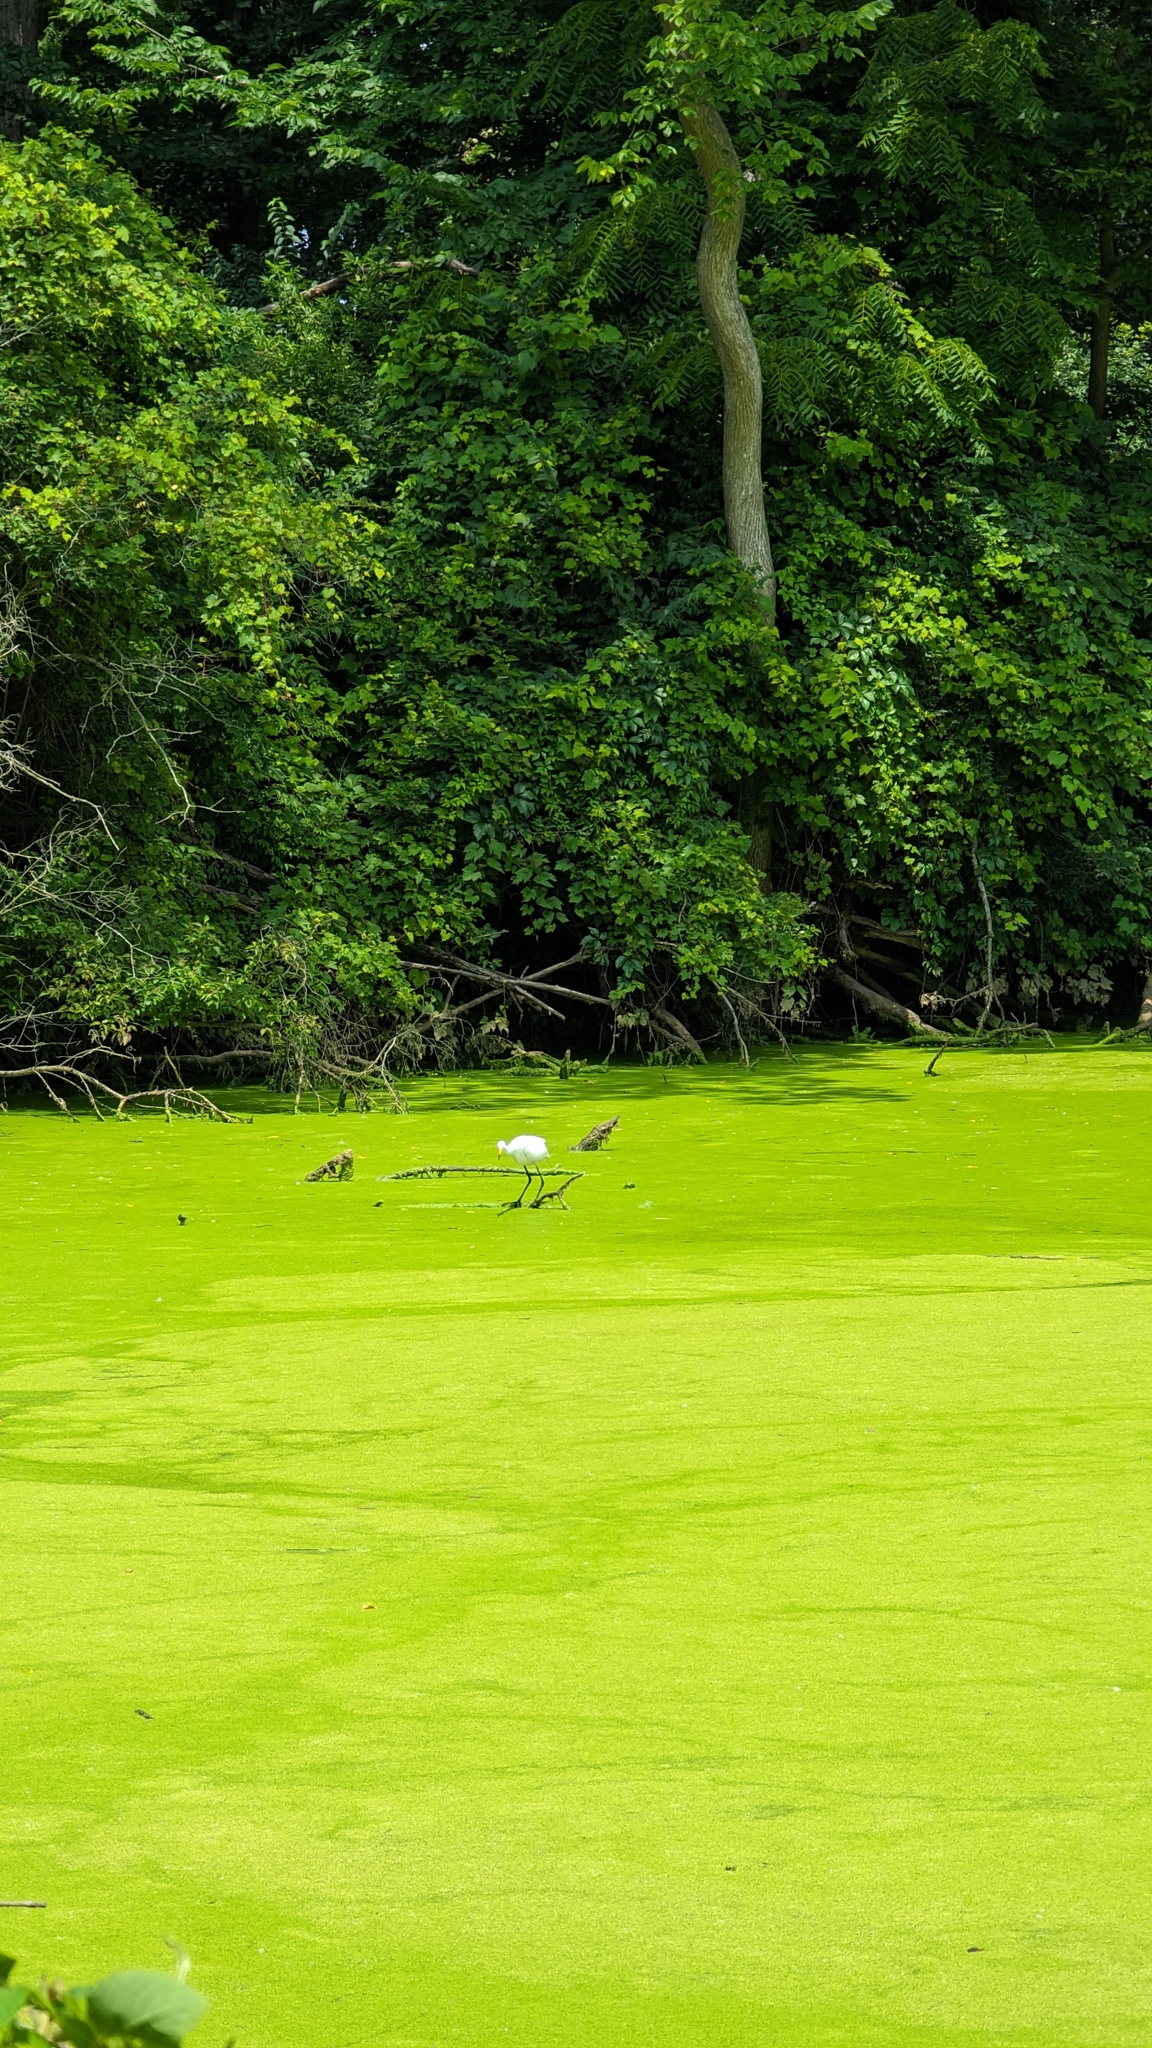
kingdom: Animalia
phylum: Chordata
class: Aves
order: Pelecaniformes
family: Ardeidae
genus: Ardea
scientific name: Ardea alba
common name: Great egret
